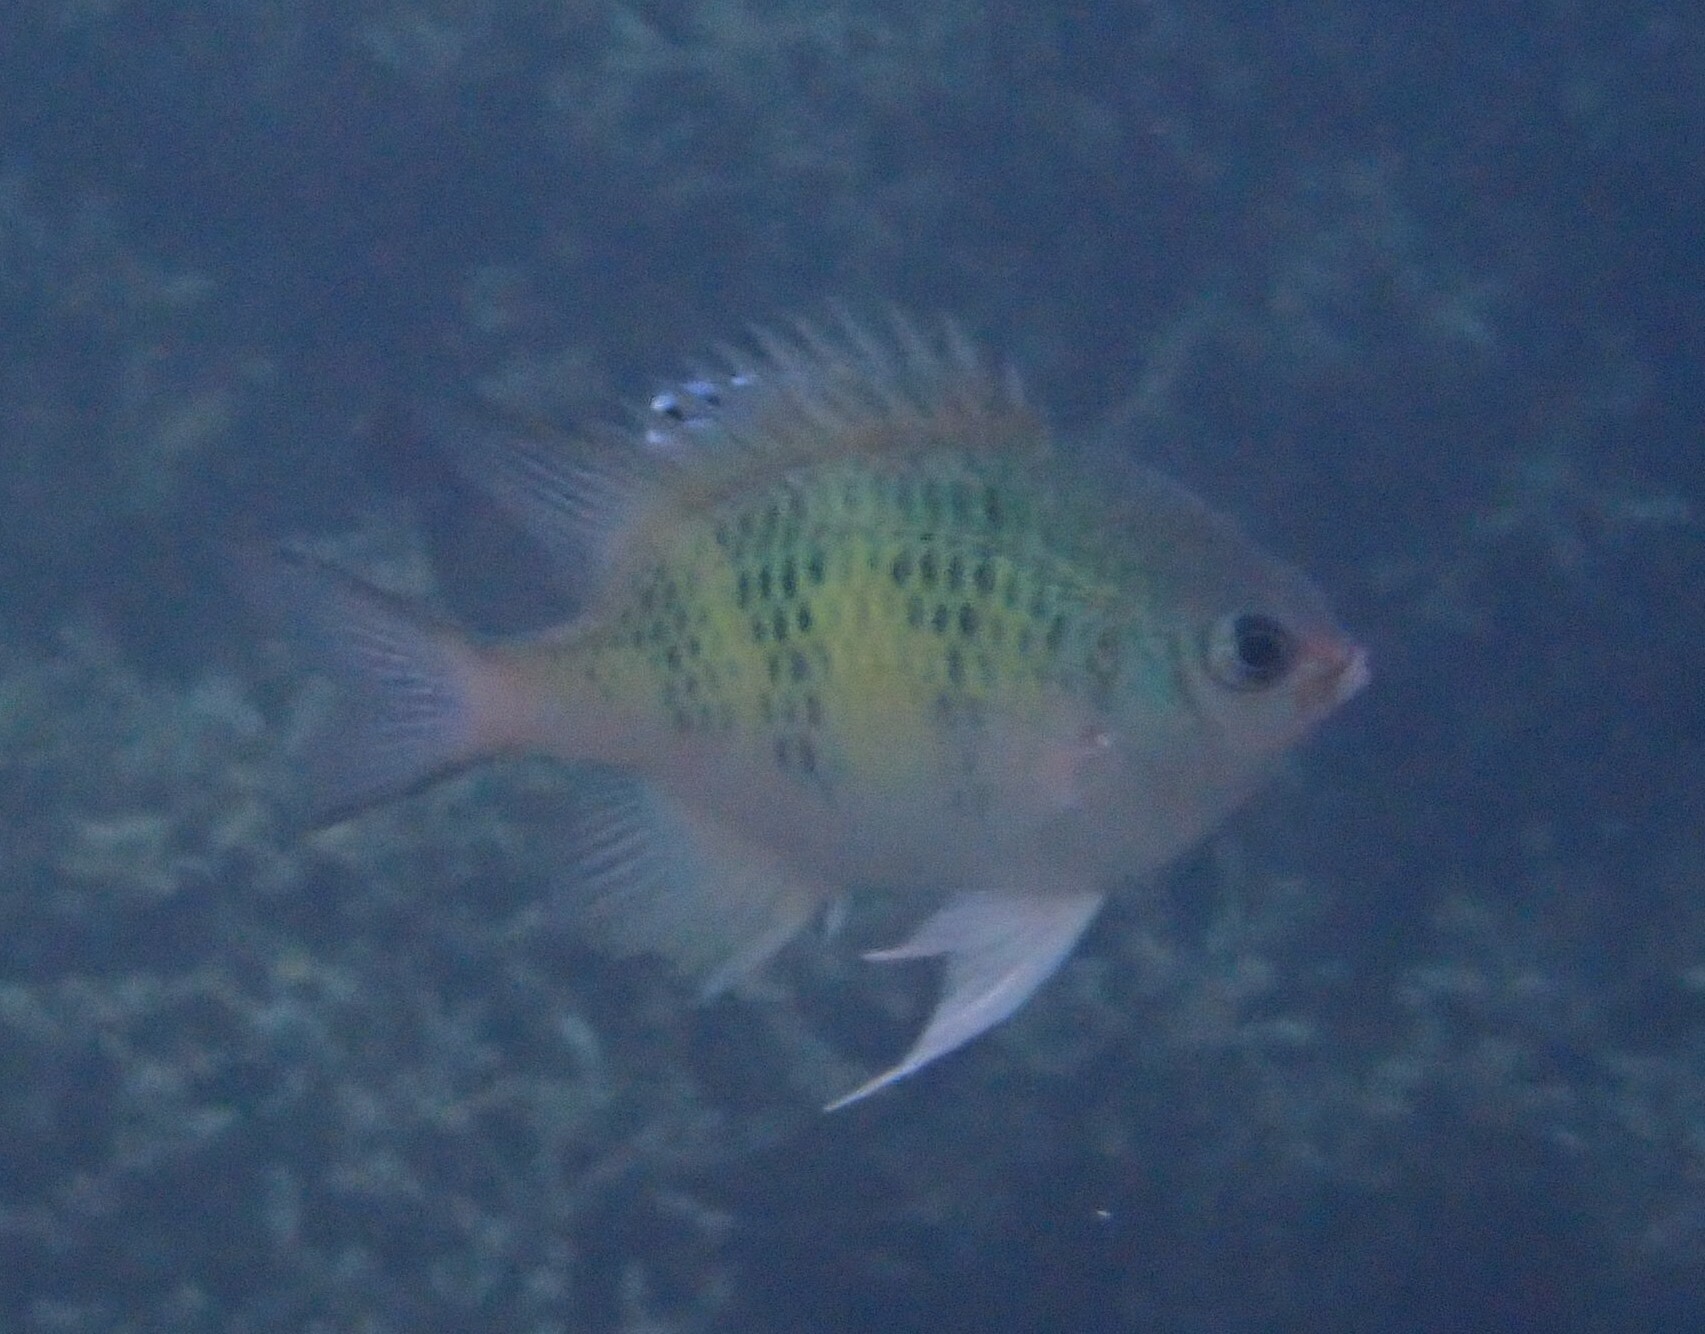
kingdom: Animalia
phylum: Chordata
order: Perciformes
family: Pomacentridae
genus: Amblyglyphidodon
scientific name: Amblyglyphidodon curacao
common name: Staghorn damsel
